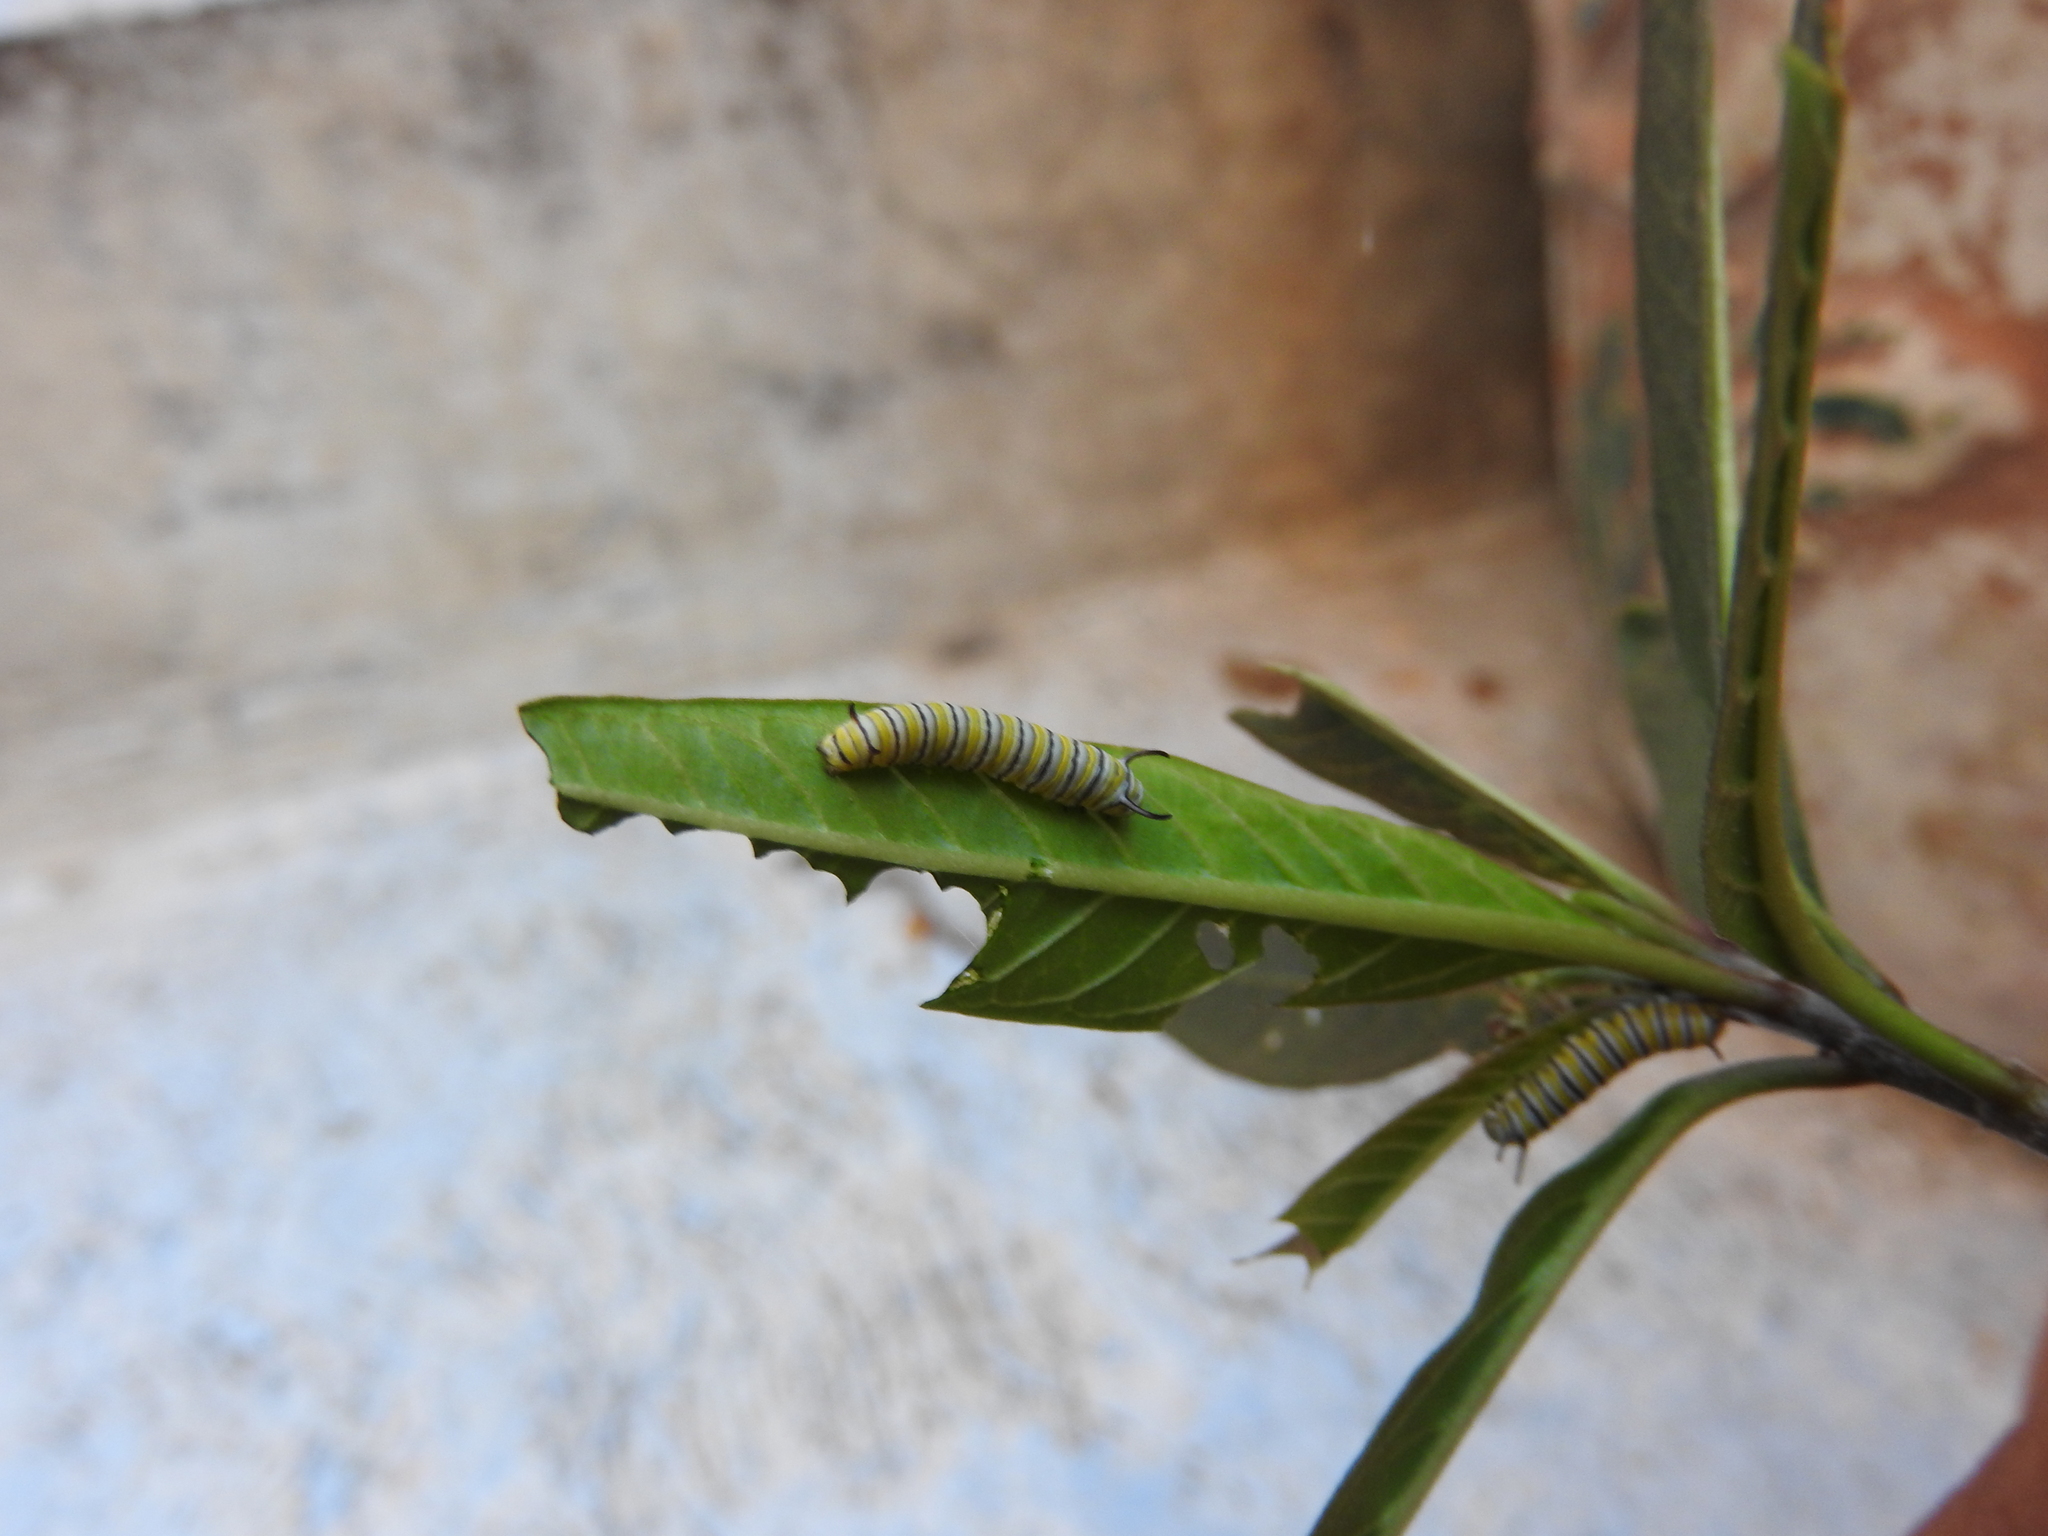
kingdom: Animalia
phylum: Arthropoda
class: Insecta
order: Lepidoptera
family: Nymphalidae
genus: Danaus
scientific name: Danaus plexippus
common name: Monarch
